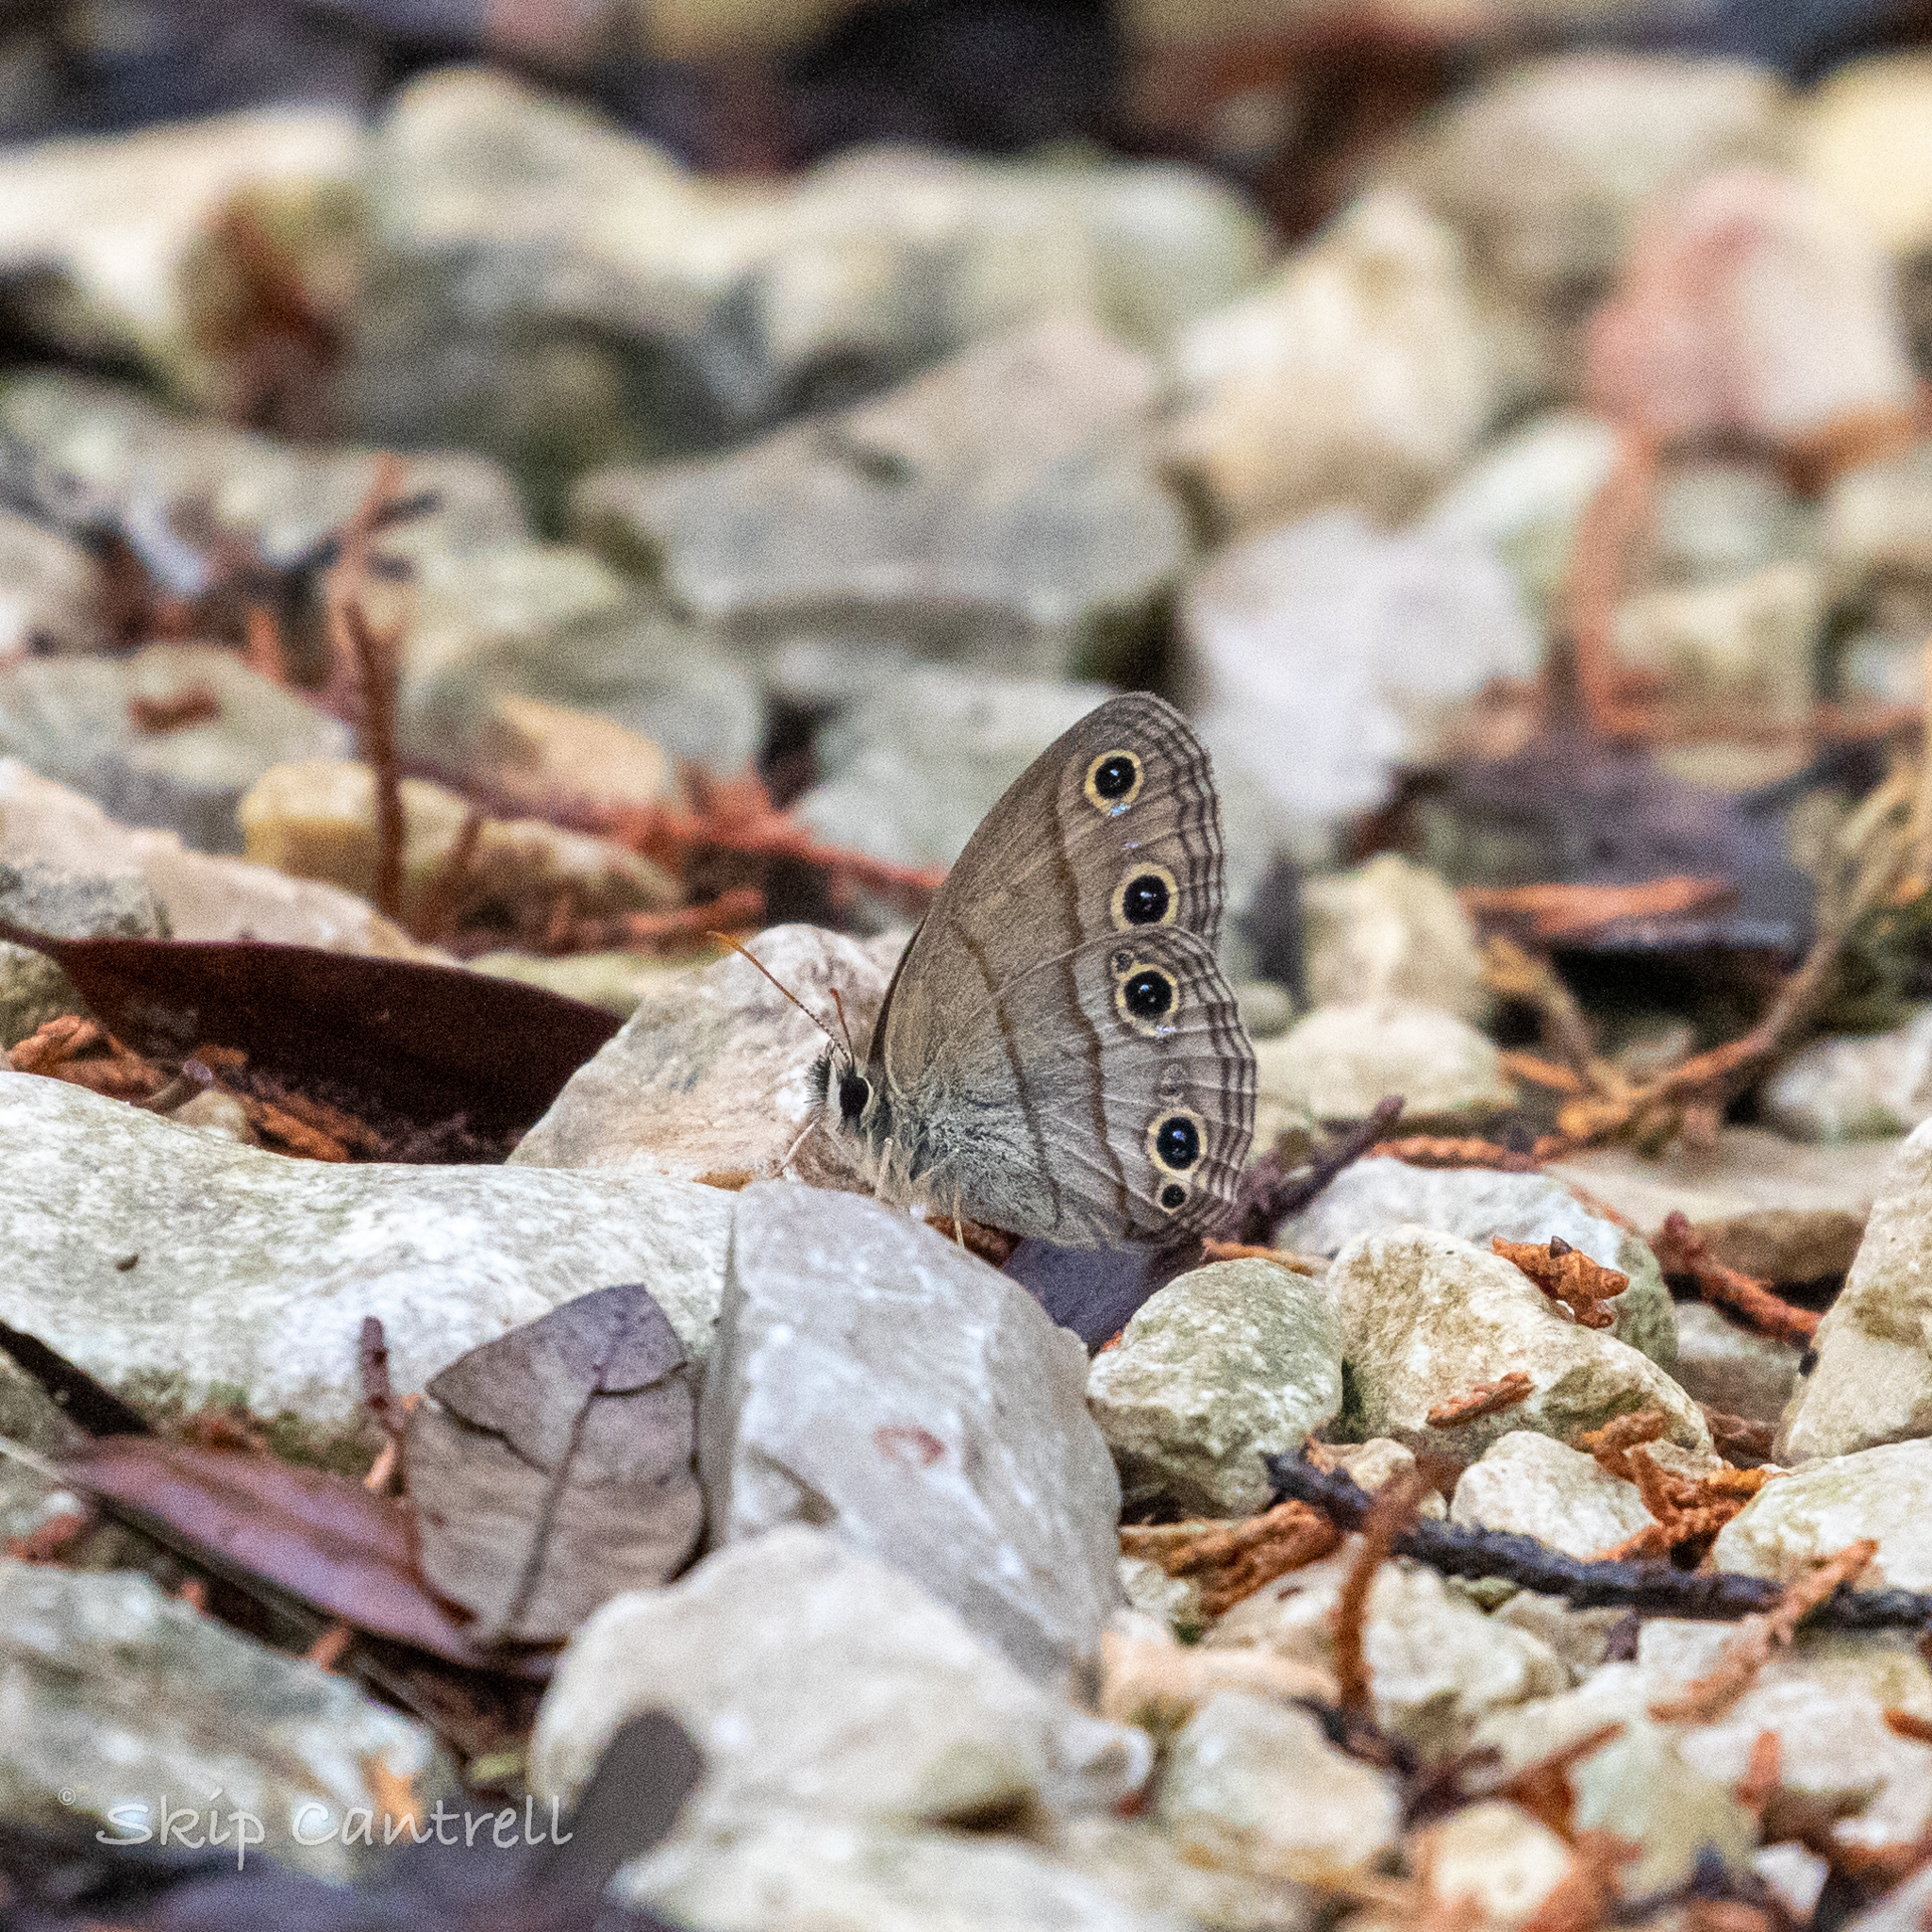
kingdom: Animalia
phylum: Arthropoda
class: Insecta
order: Lepidoptera
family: Nymphalidae
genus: Euptychia
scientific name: Euptychia cymela
